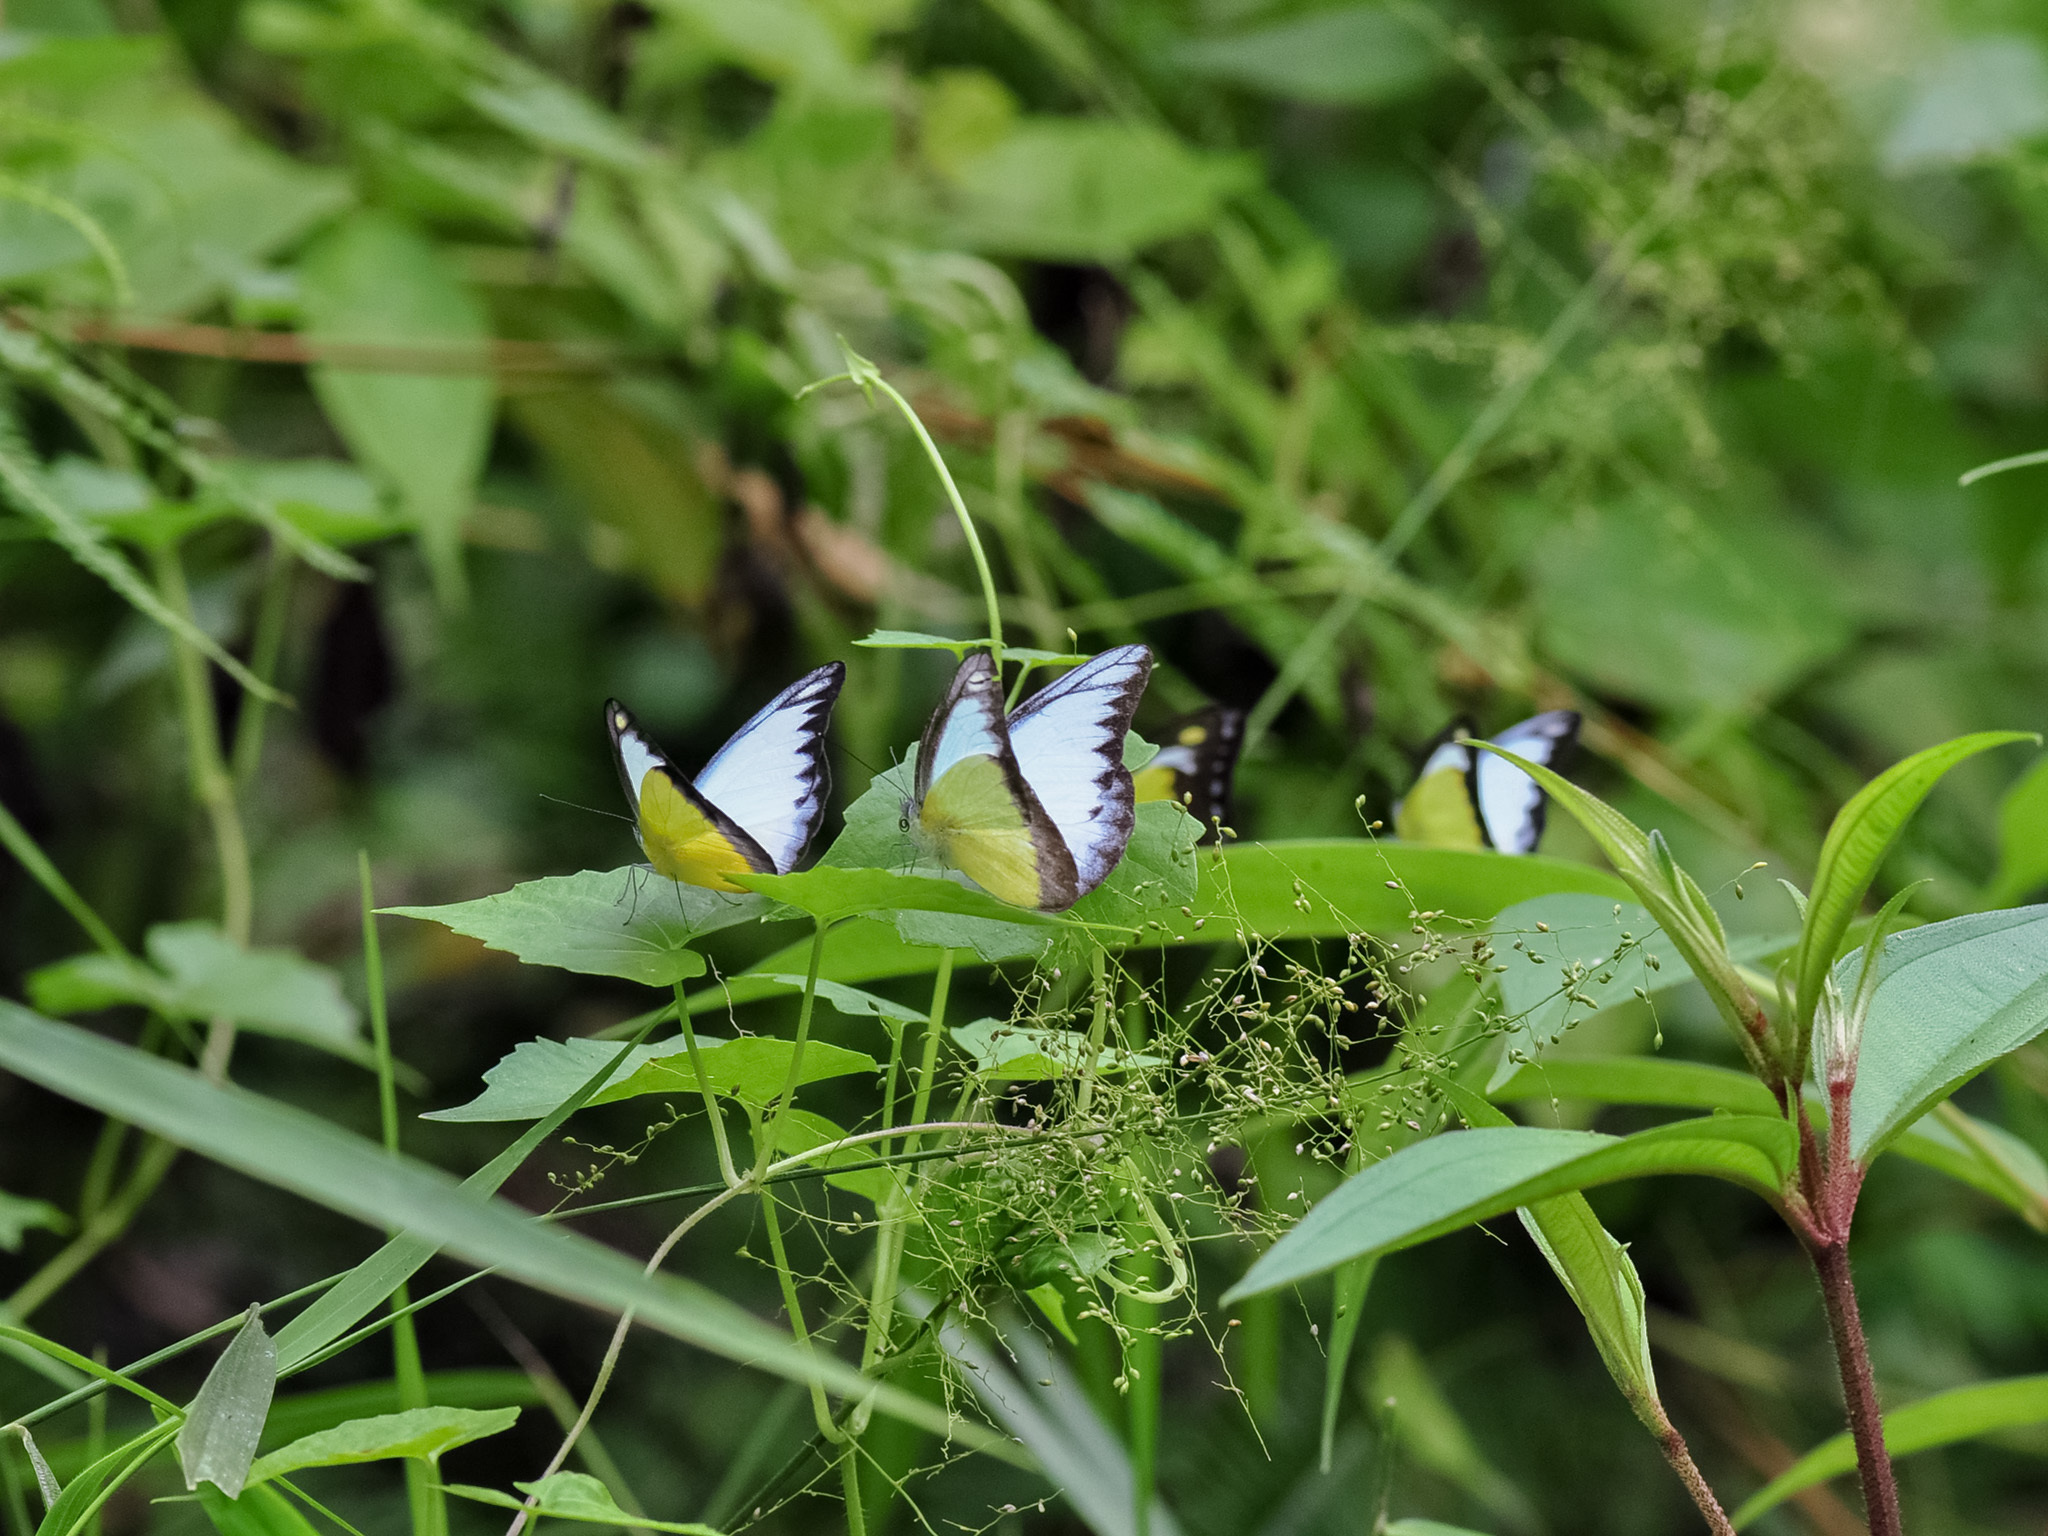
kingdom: Animalia
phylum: Arthropoda
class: Insecta
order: Lepidoptera
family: Pieridae
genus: Appias
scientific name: Appias lyncida
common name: Chocolate albatross
